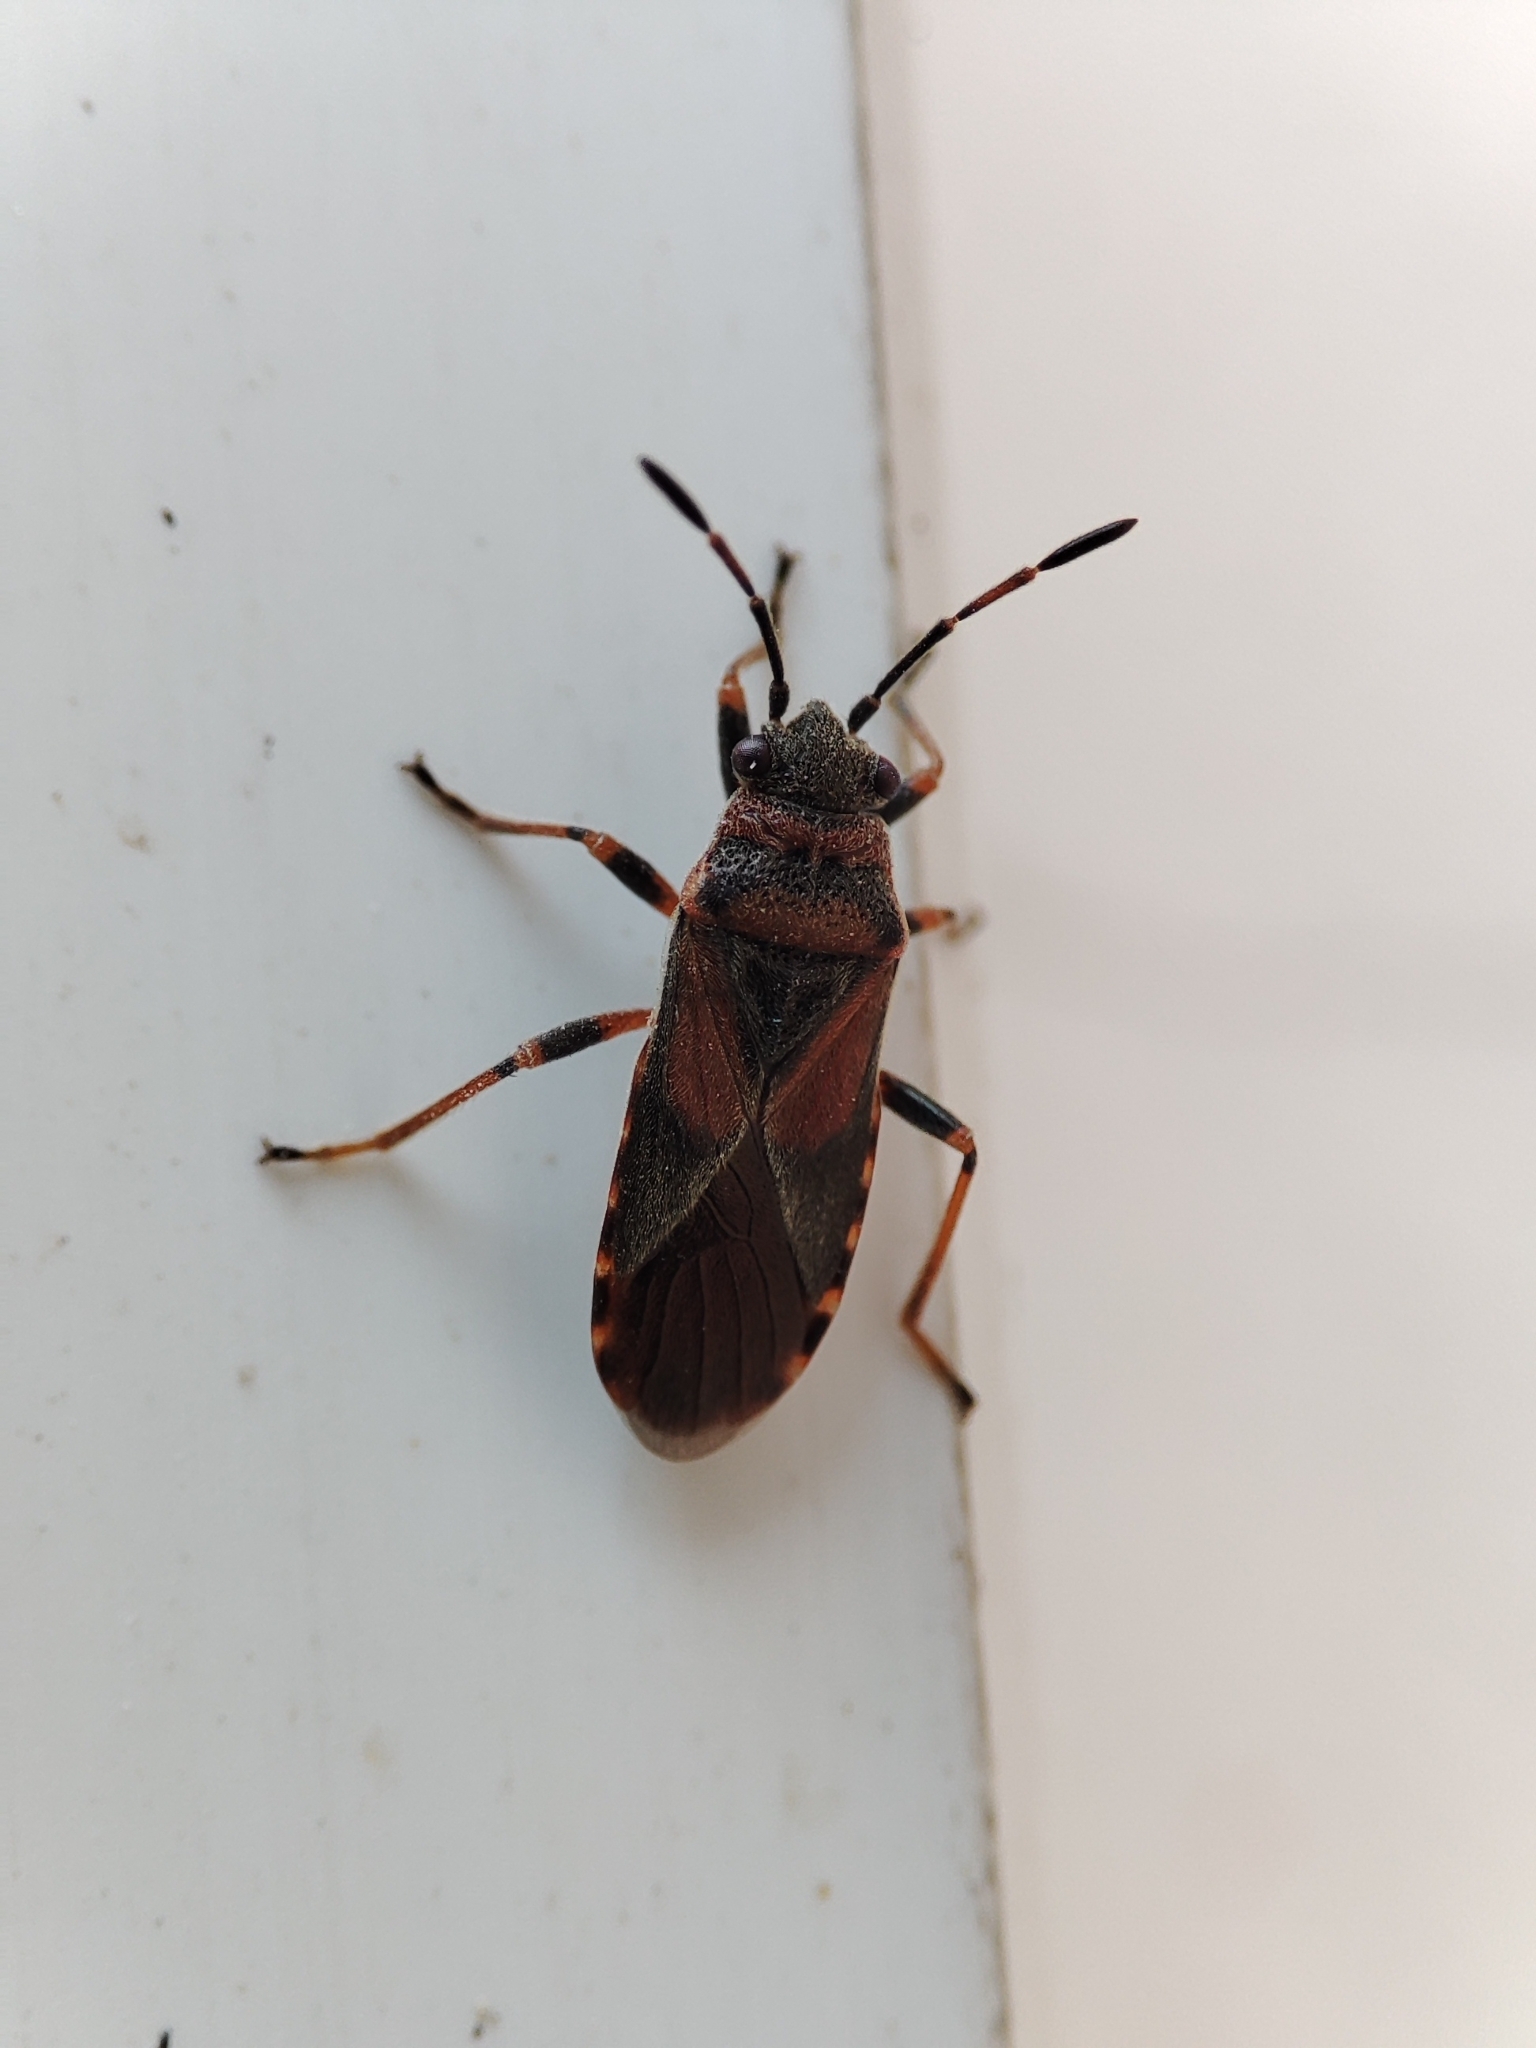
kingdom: Animalia
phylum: Arthropoda
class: Insecta
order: Hemiptera
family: Lygaeidae
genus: Arocatus
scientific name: Arocatus melanocephalus
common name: Lygaeid bug
